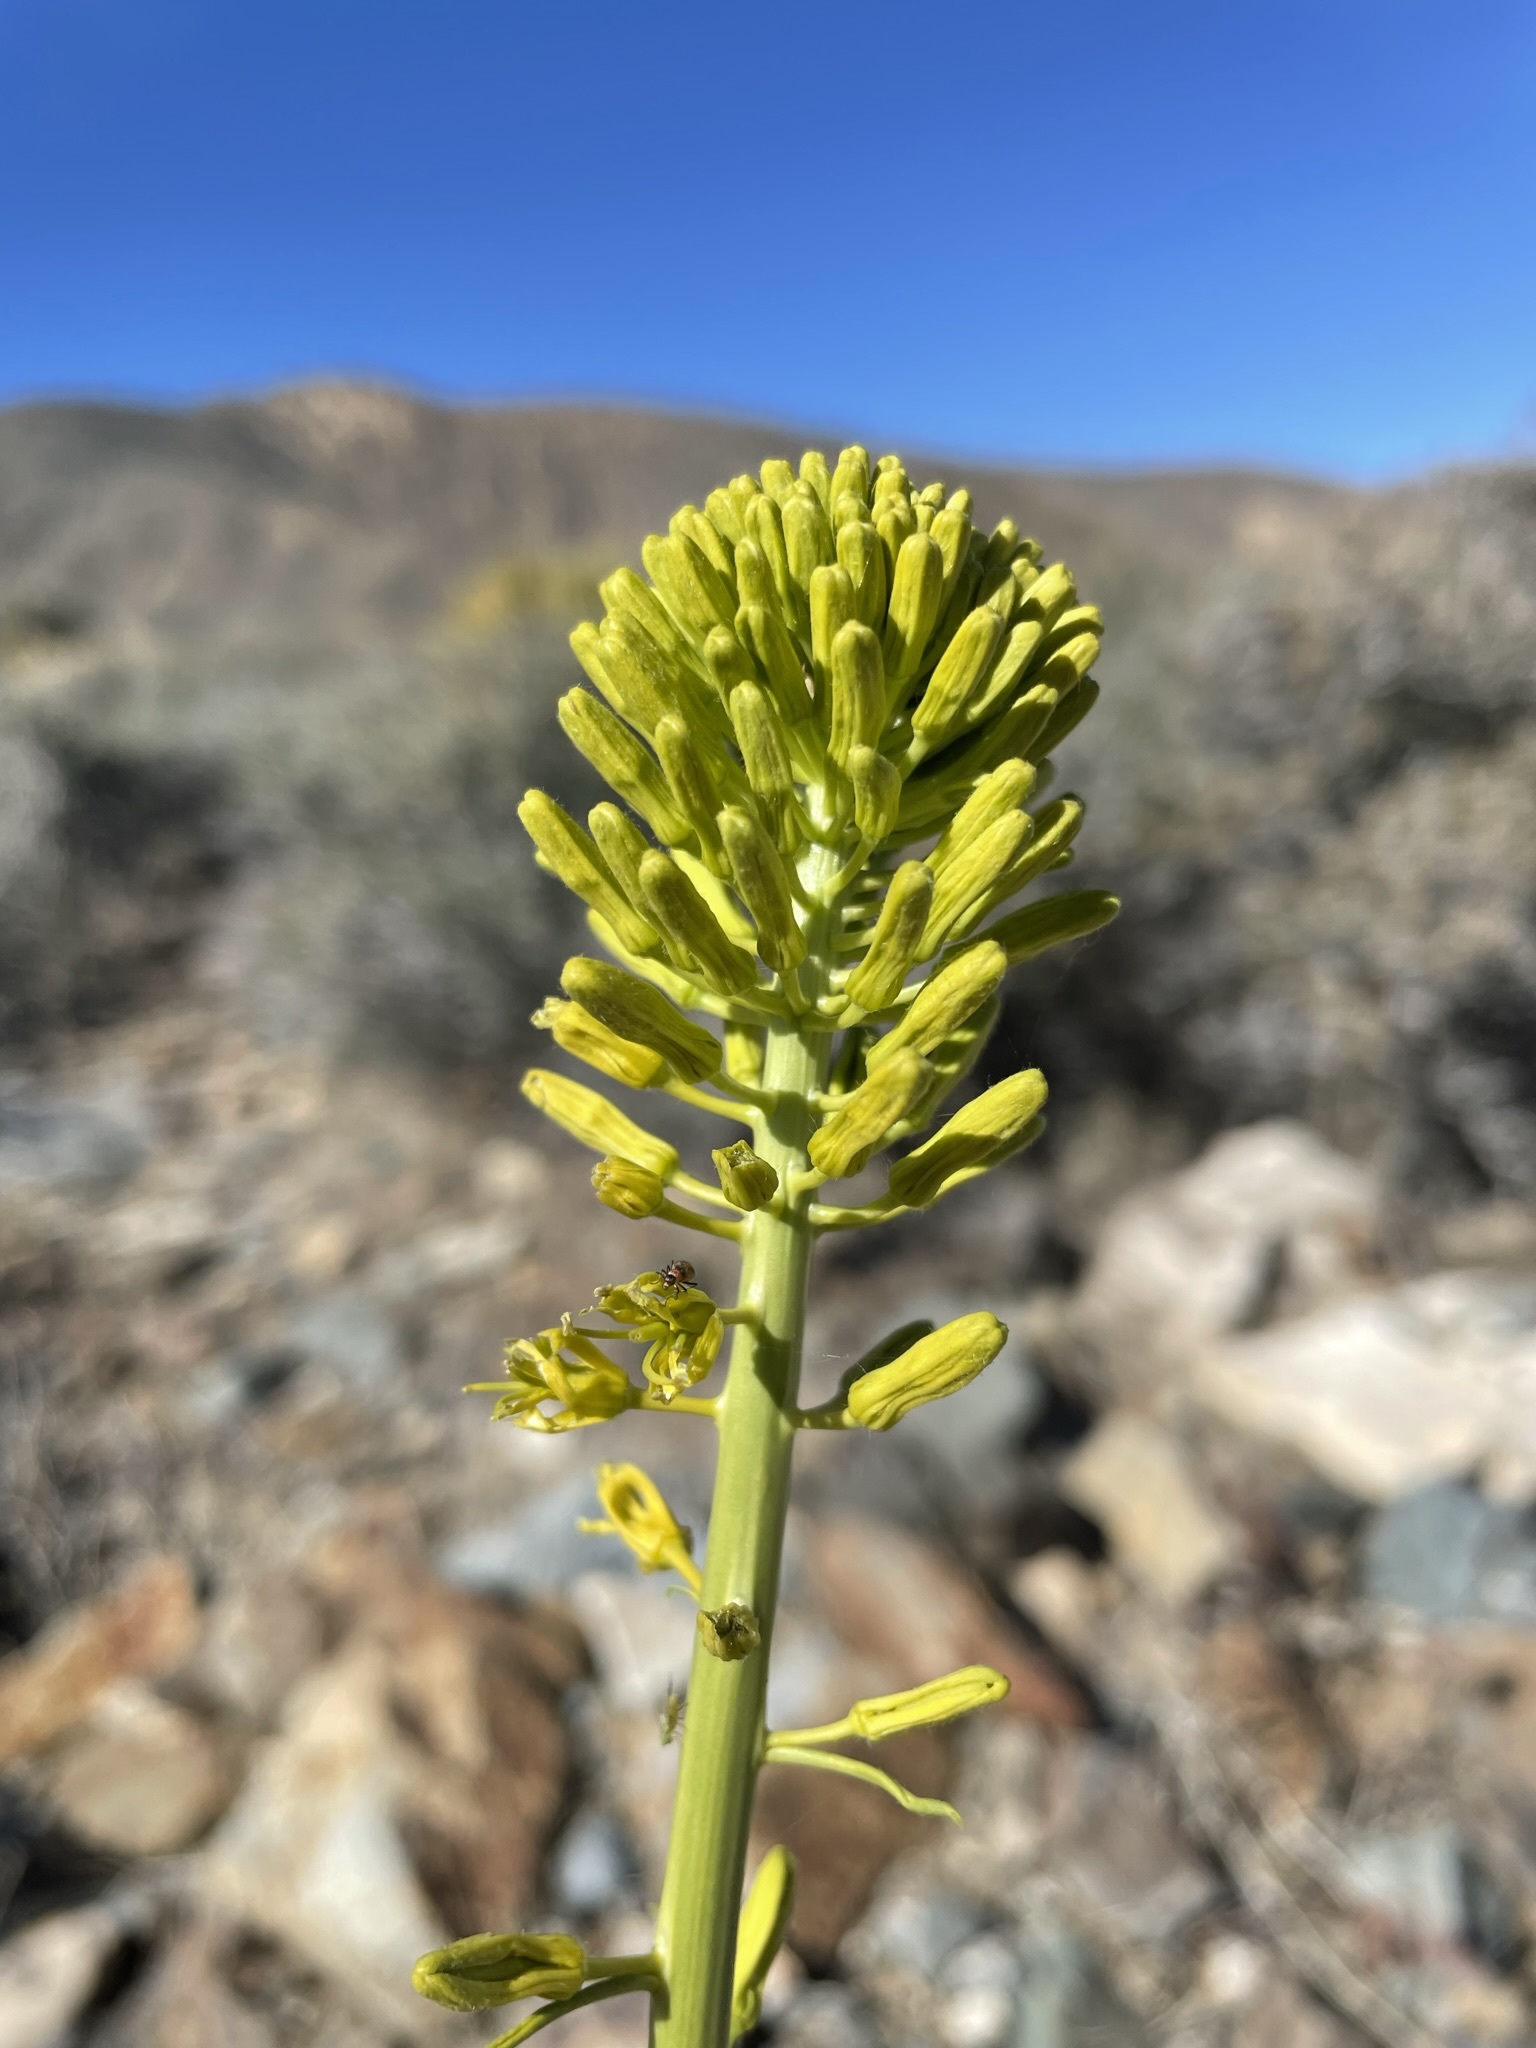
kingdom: Plantae
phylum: Tracheophyta
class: Magnoliopsida
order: Brassicales
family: Brassicaceae
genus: Stanleya
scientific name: Stanleya elata
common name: Panamint prince's plume
